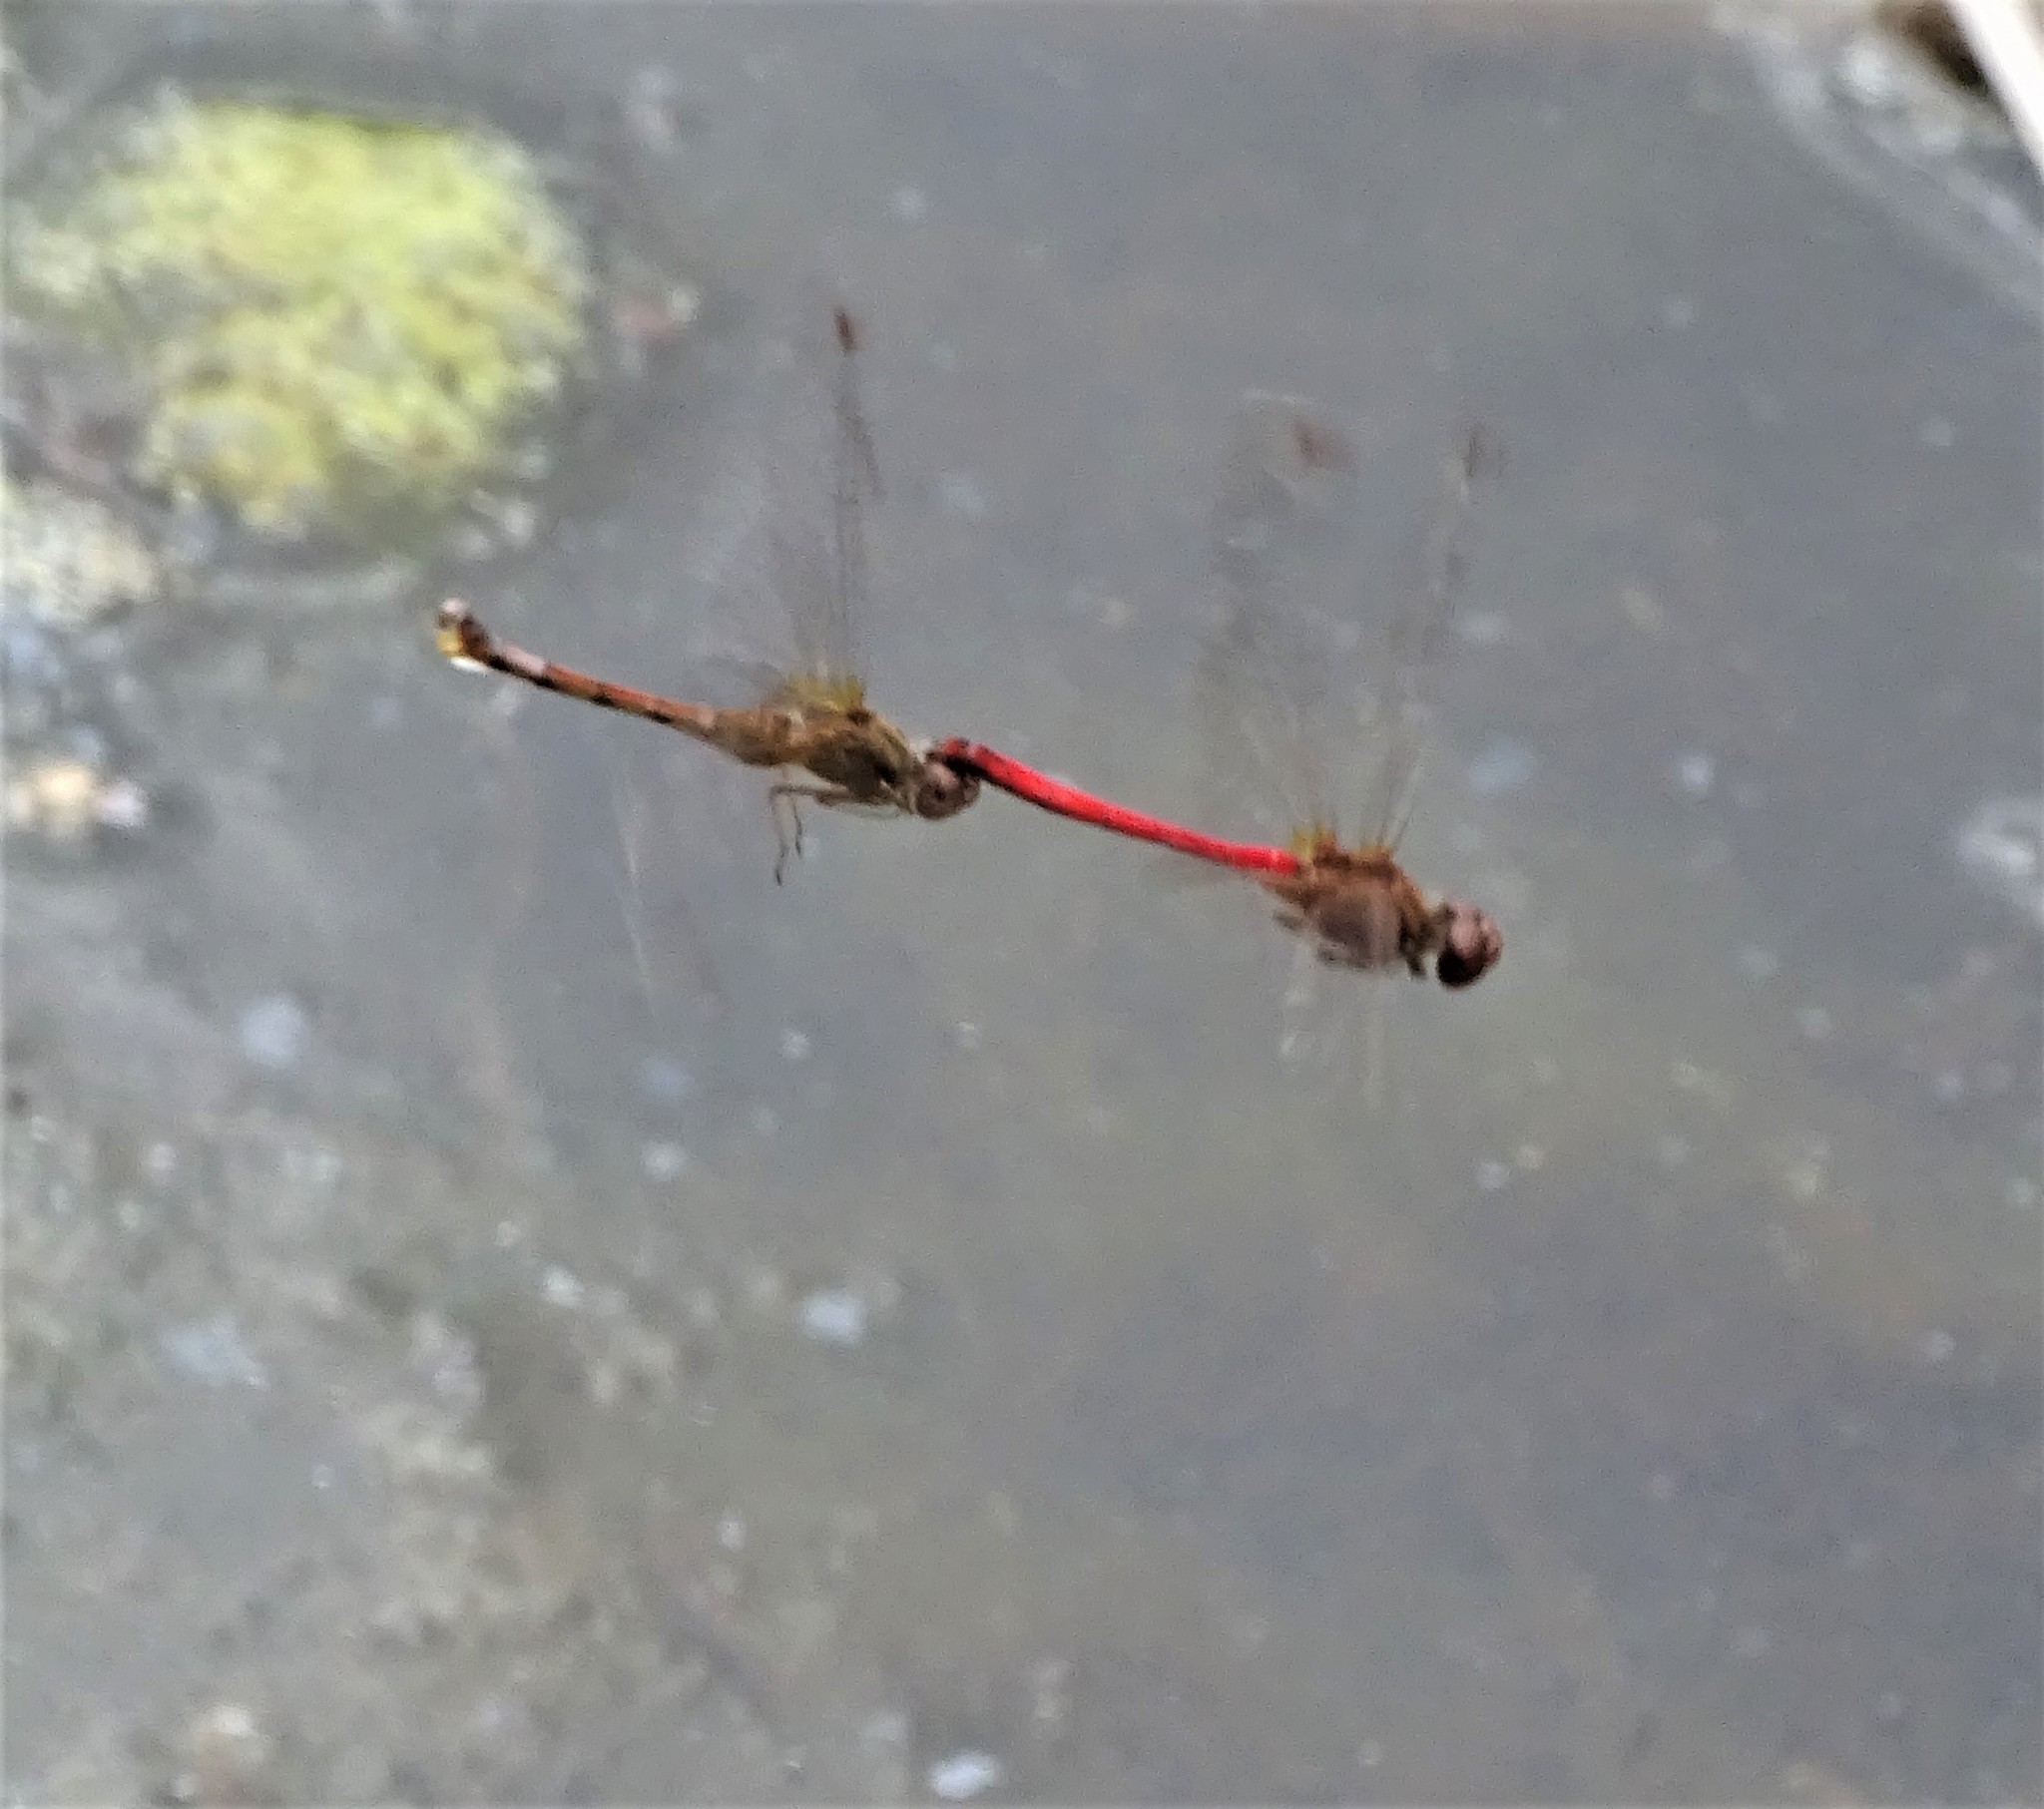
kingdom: Animalia
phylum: Arthropoda
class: Insecta
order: Odonata
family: Libellulidae
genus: Sympetrum
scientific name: Sympetrum vicinum
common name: Autumn meadowhawk
